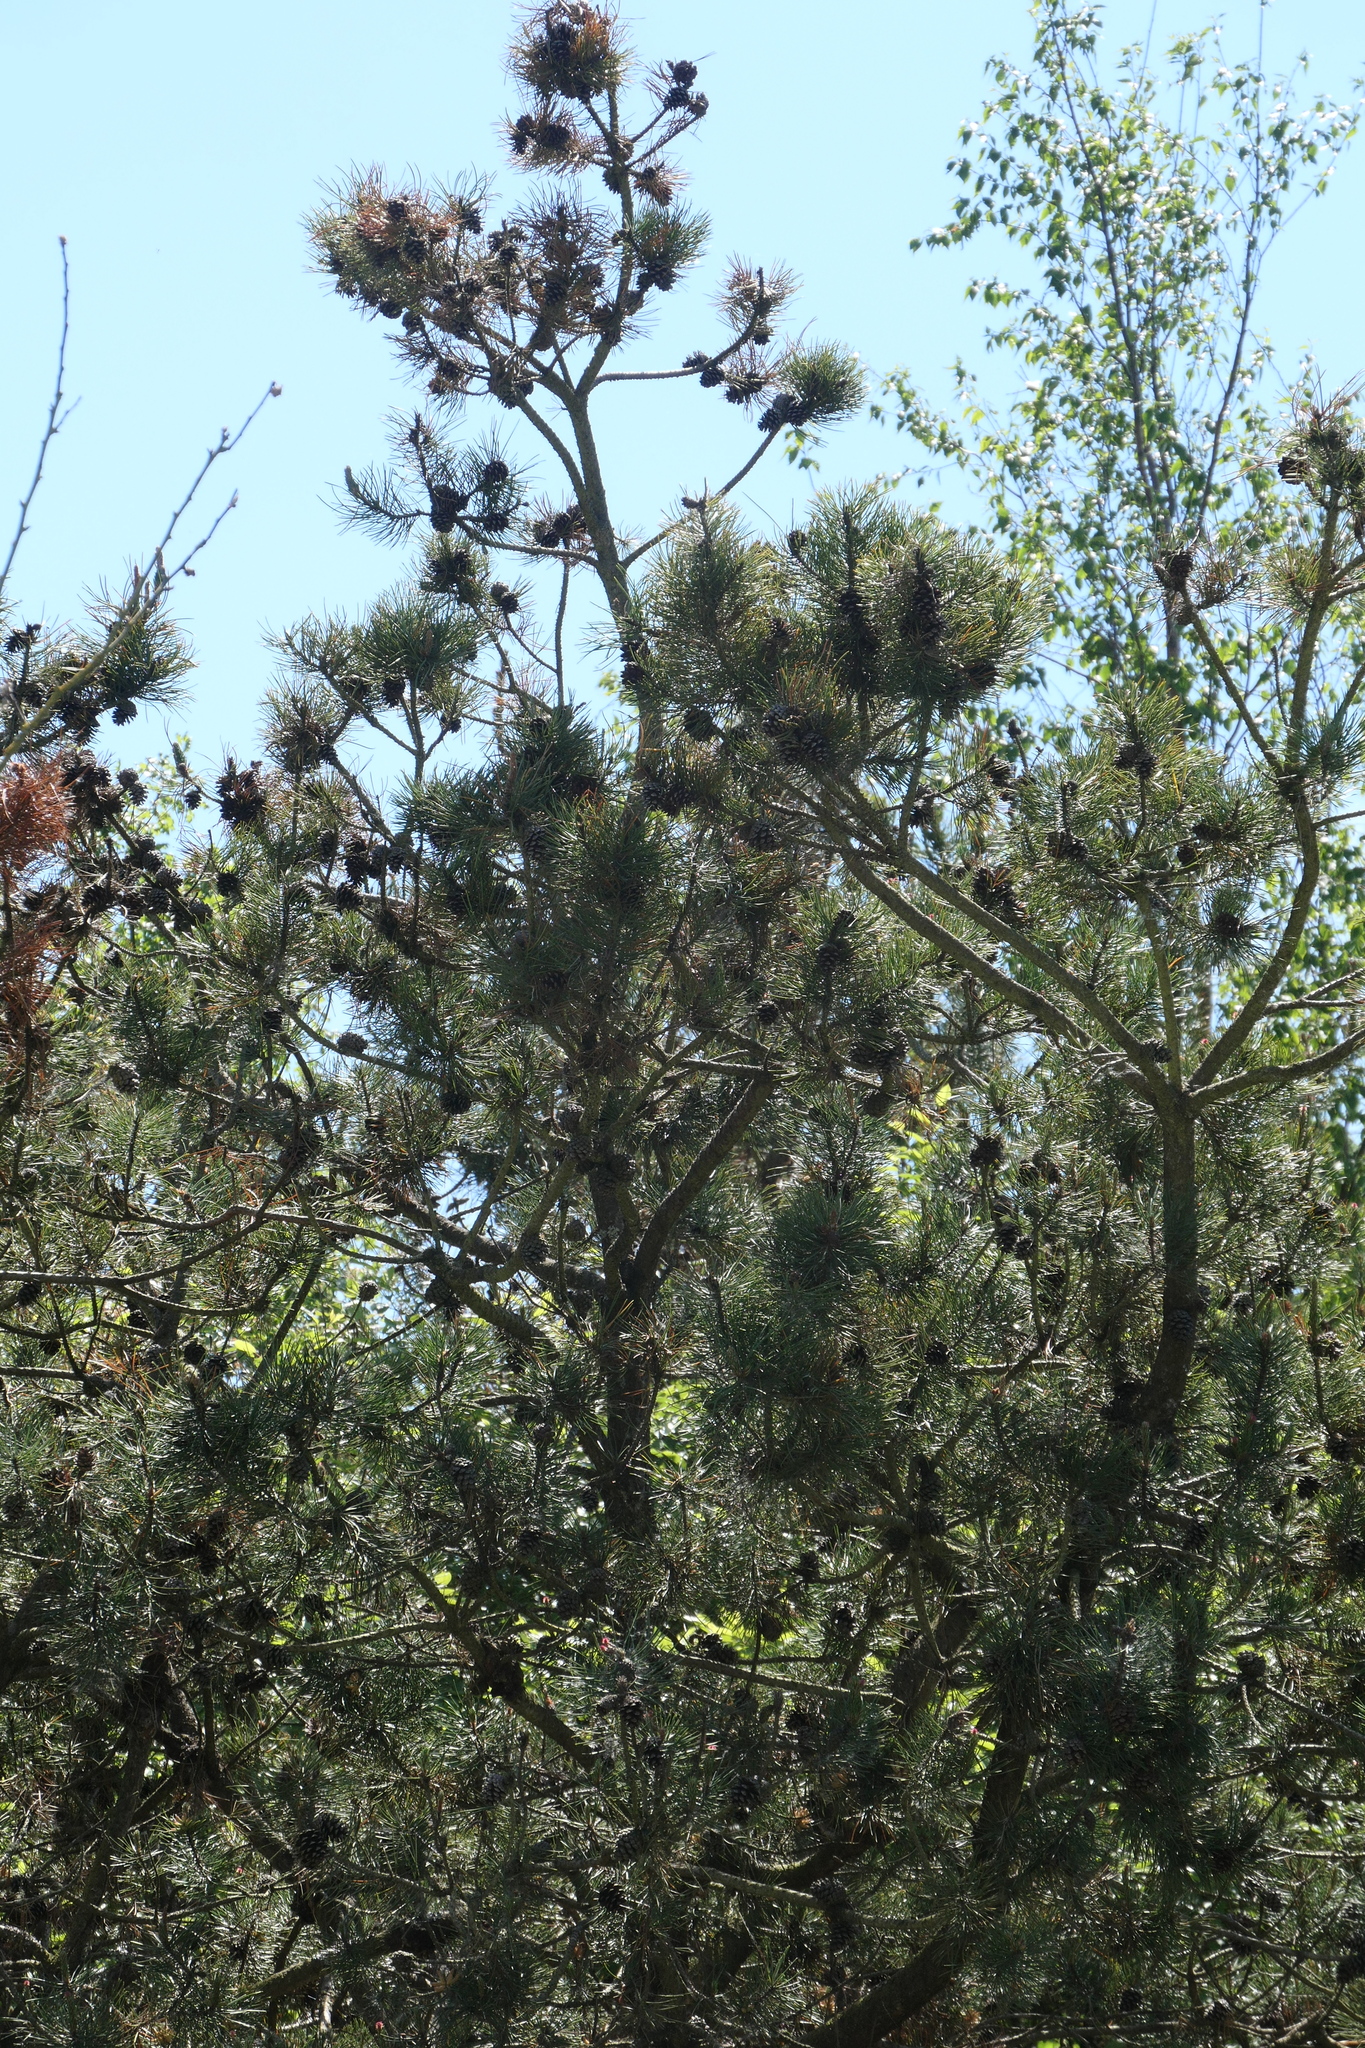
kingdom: Plantae
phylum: Tracheophyta
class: Pinopsida
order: Pinales
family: Pinaceae
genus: Pinus
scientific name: Pinus contorta
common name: Lodgepole pine
